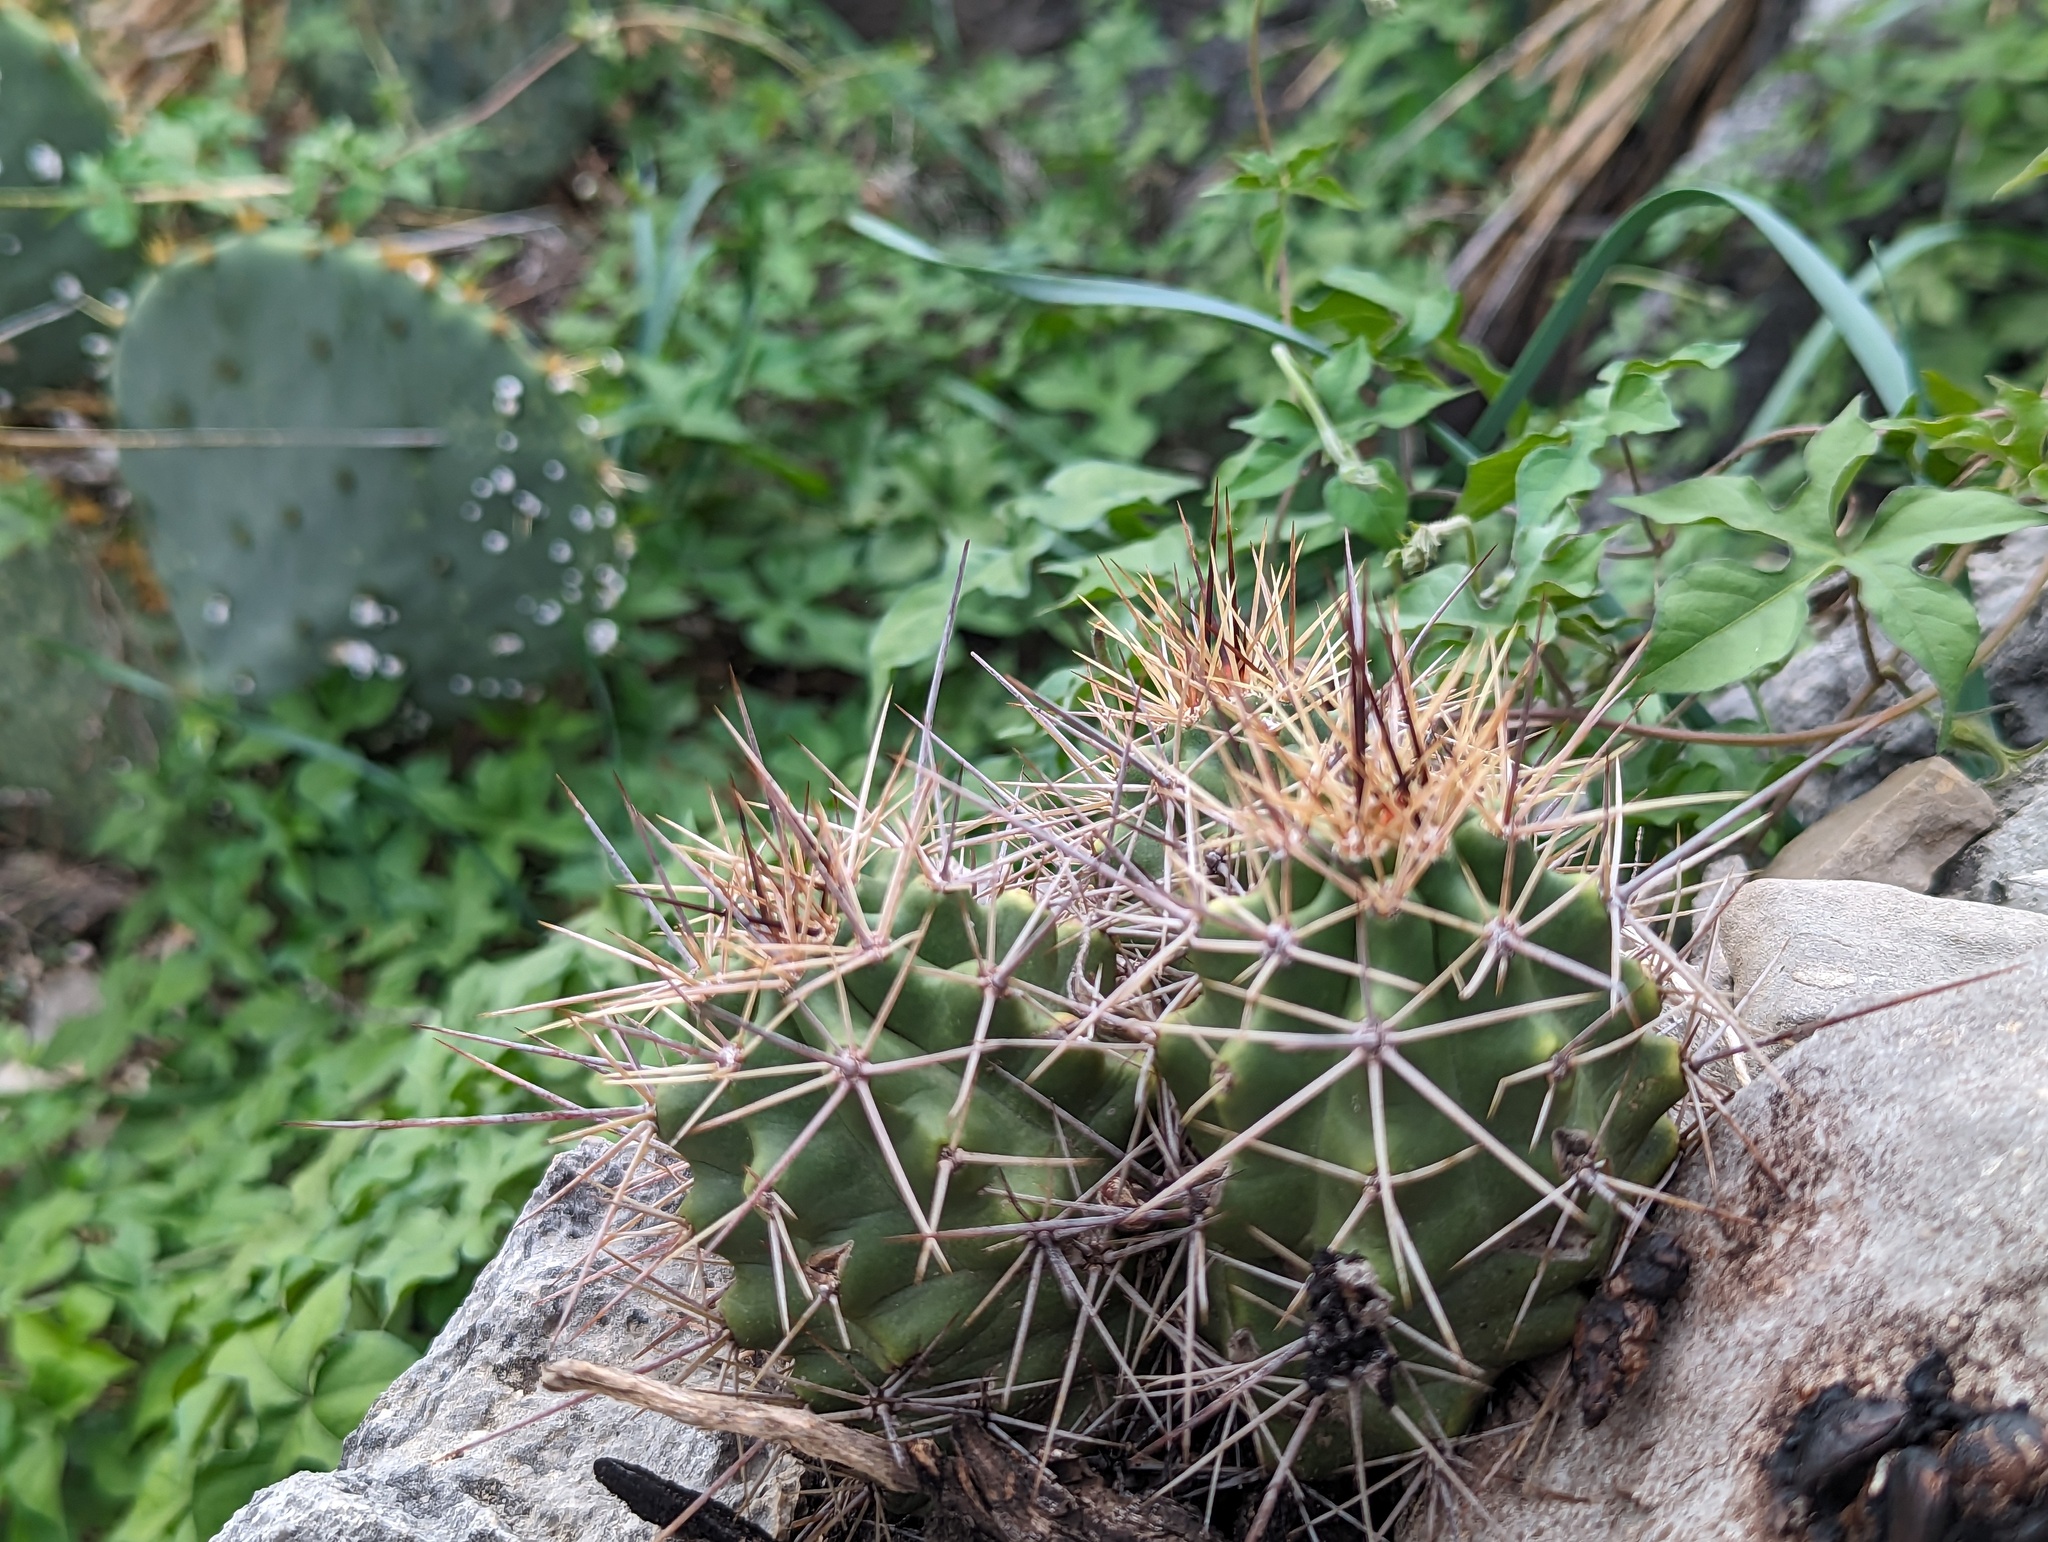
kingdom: Plantae
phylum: Tracheophyta
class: Magnoliopsida
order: Caryophyllales
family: Cactaceae
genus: Echinocereus
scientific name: Echinocereus coccineus
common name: Scarlet hedgehog cactus
